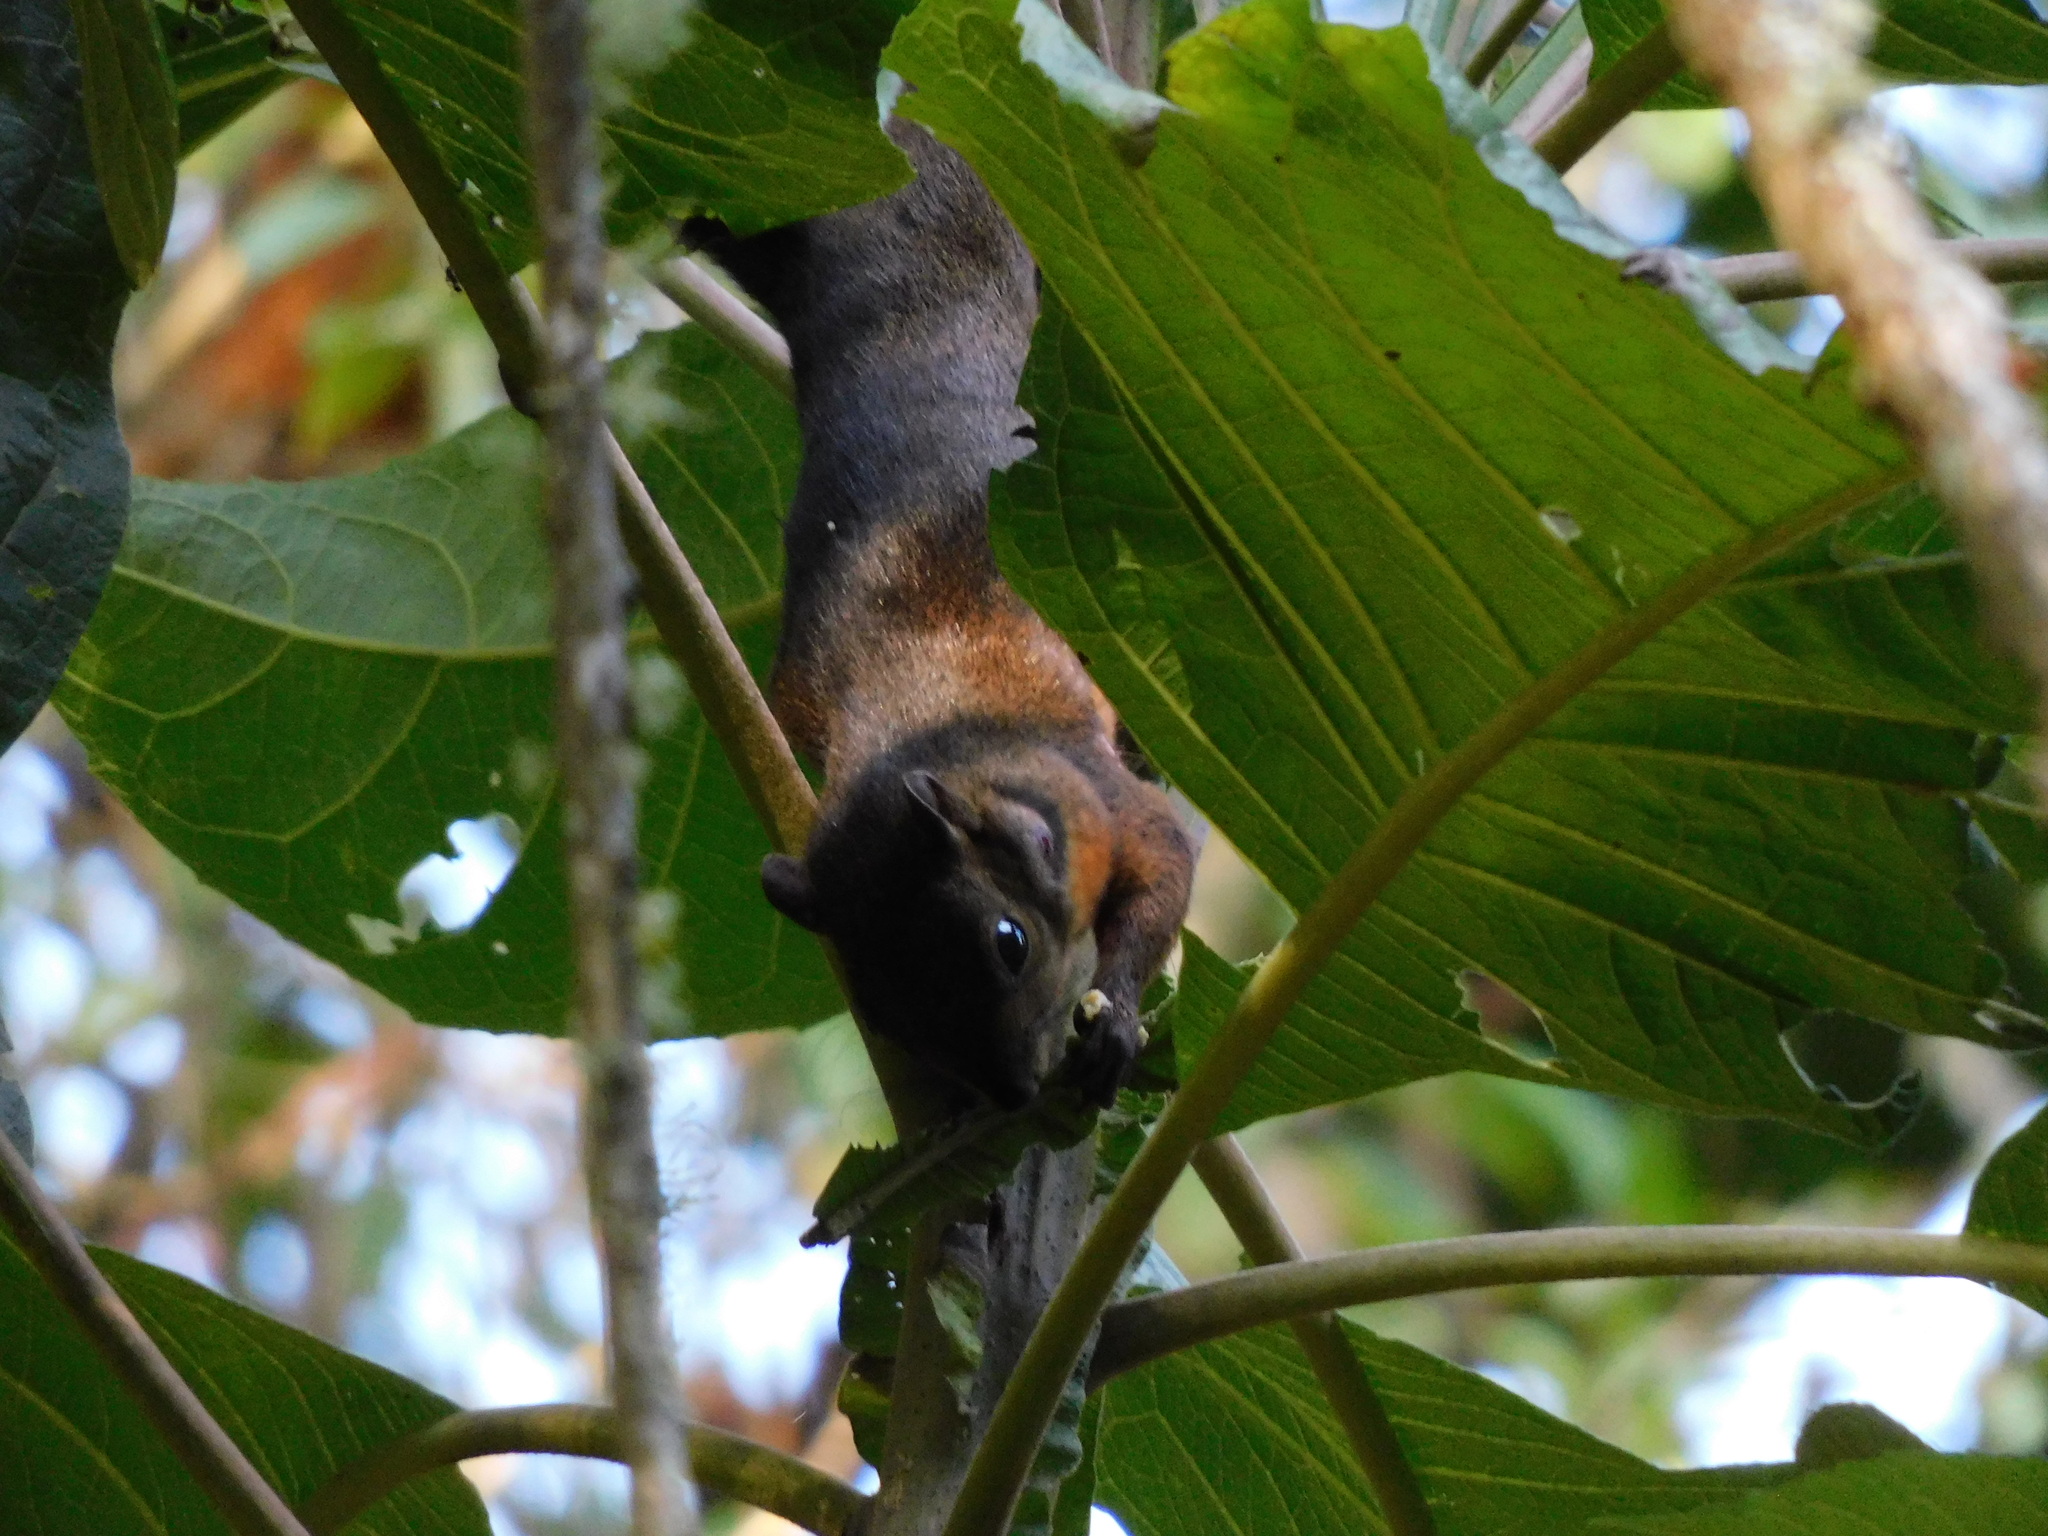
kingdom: Animalia
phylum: Chordata
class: Mammalia
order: Rodentia
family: Sciuridae
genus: Sciurus
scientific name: Sciurus granatensis
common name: Red-tailed squirrel
